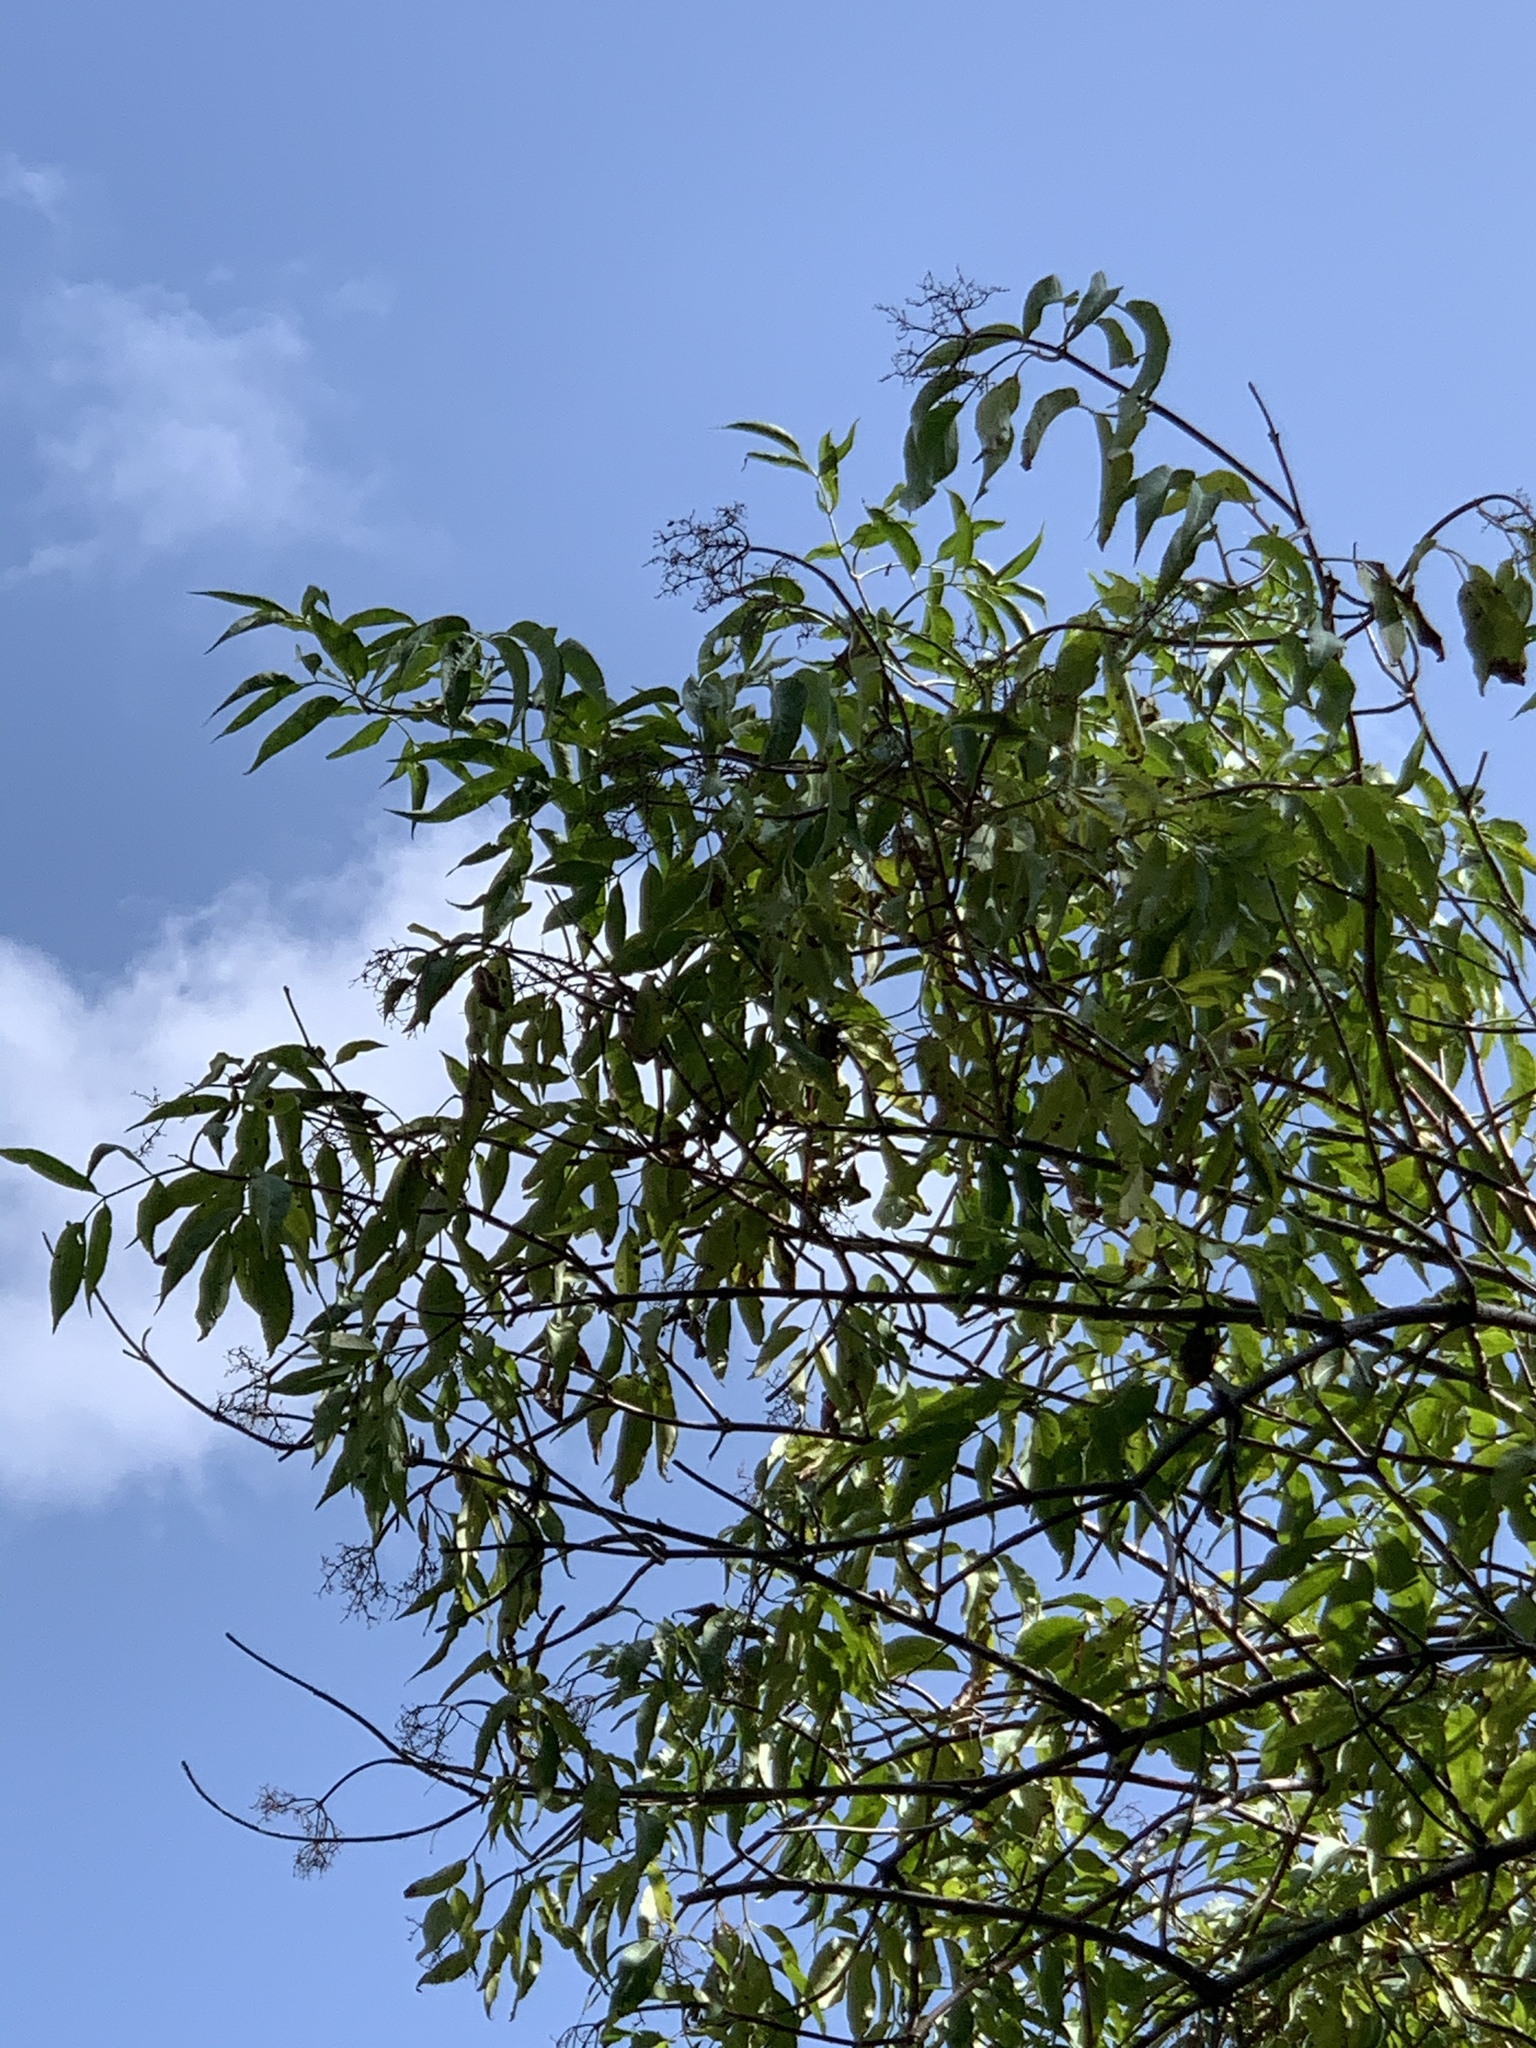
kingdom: Plantae
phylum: Tracheophyta
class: Magnoliopsida
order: Dipsacales
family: Viburnaceae
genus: Sambucus
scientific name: Sambucus cerulea
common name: Blue elder
